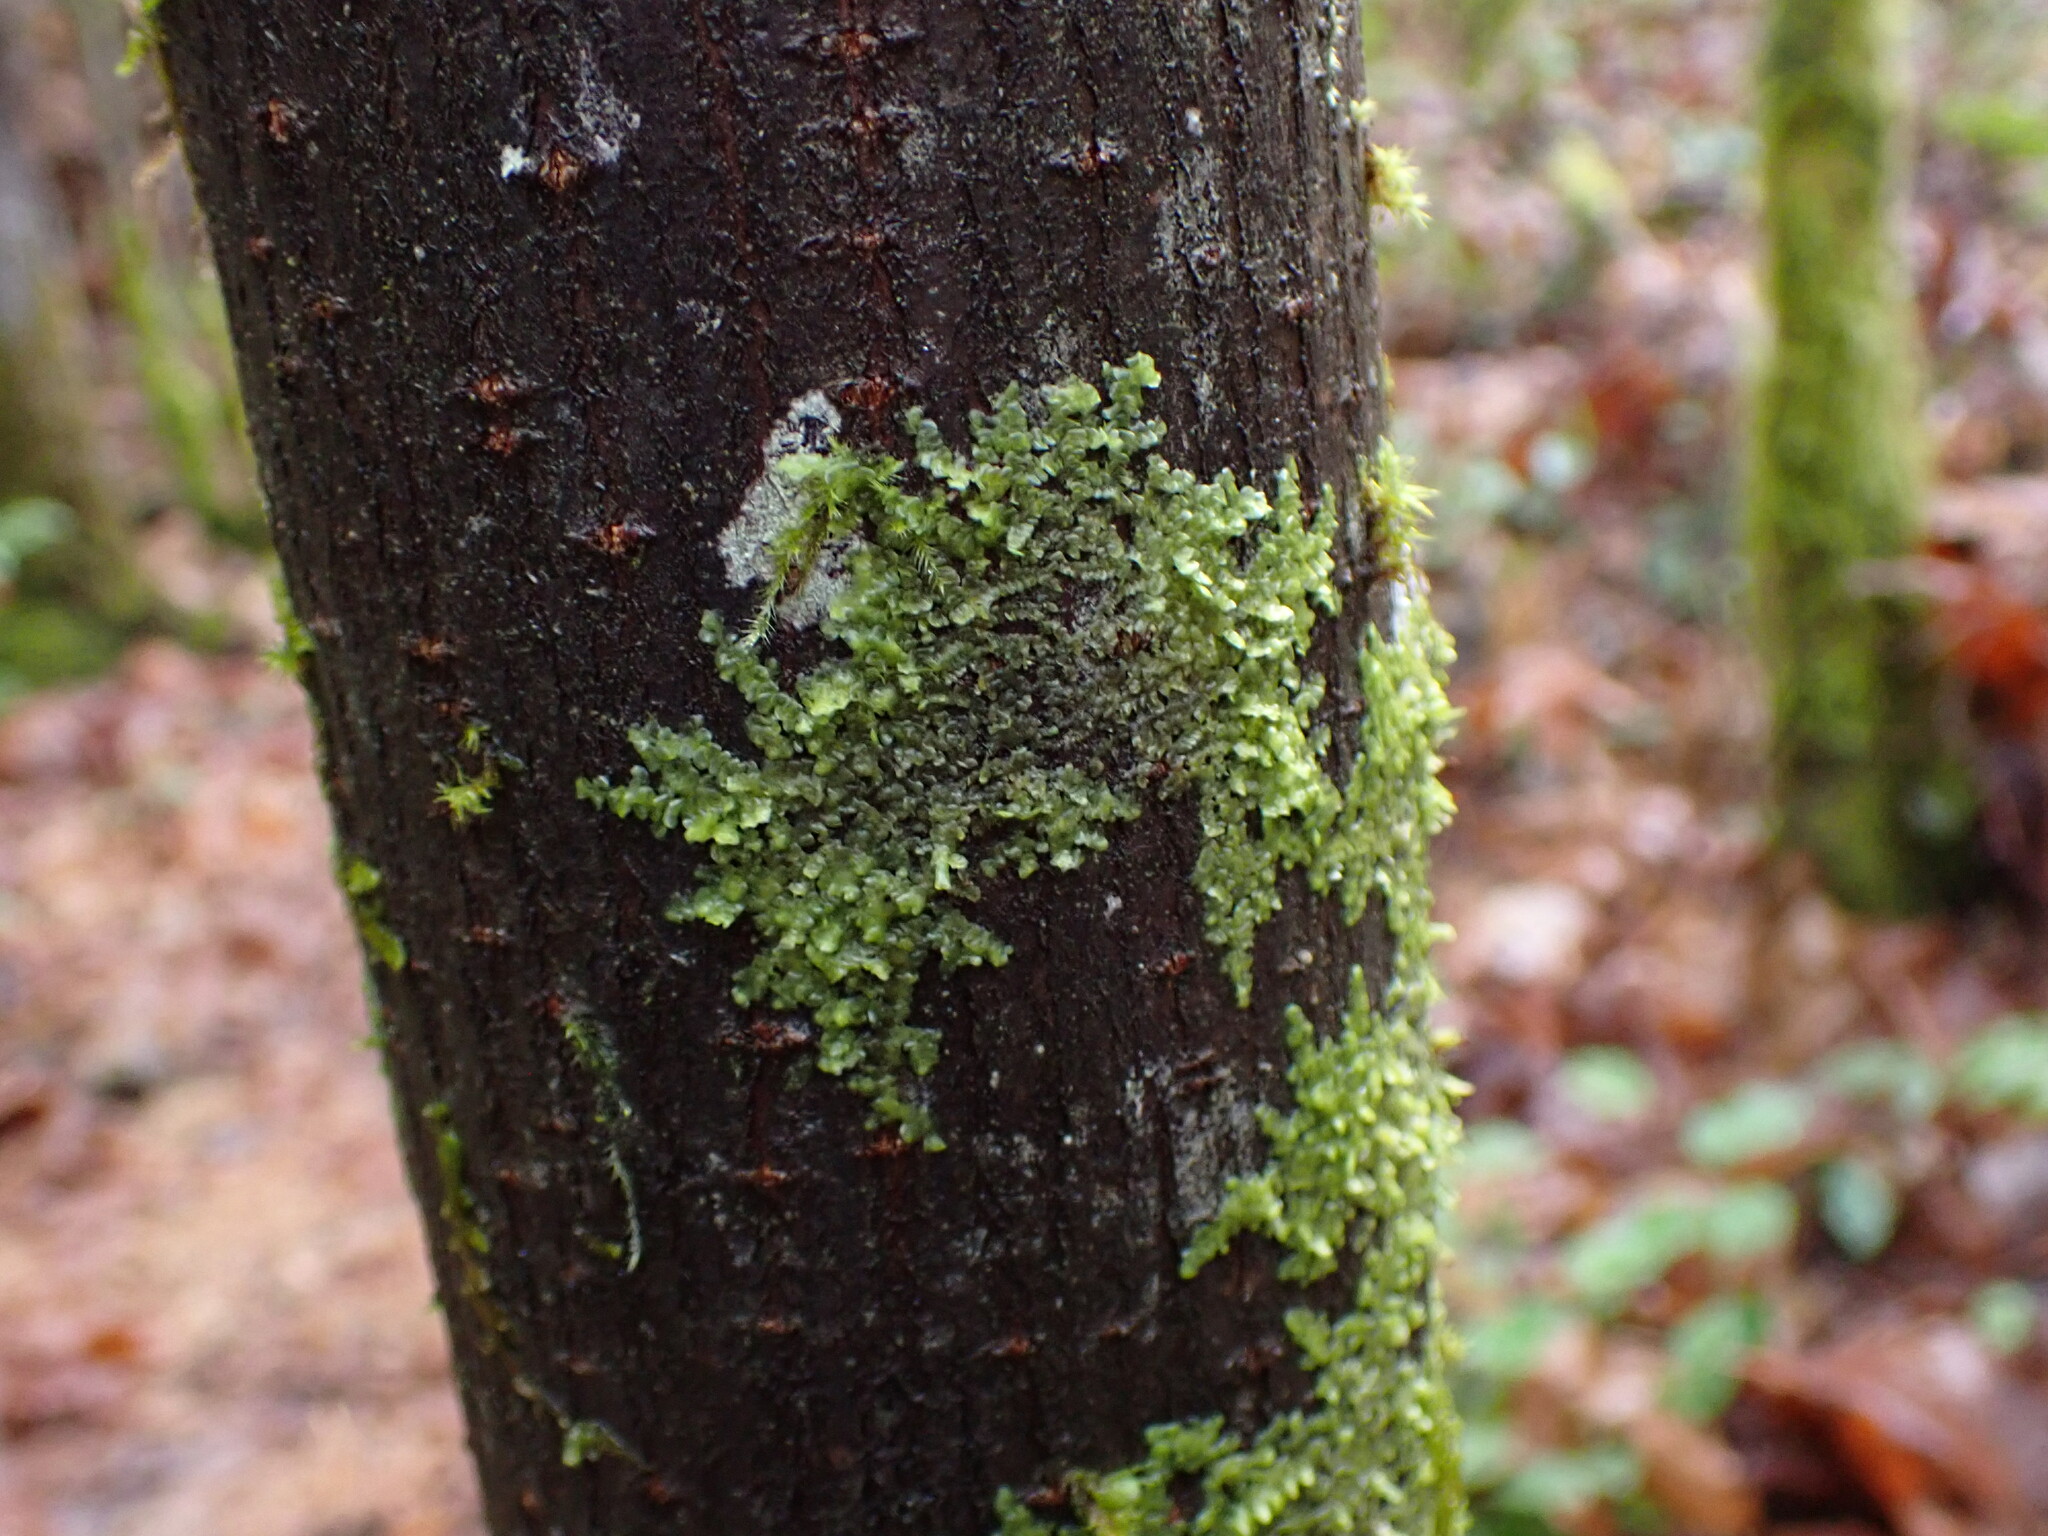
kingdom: Plantae
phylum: Marchantiophyta
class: Jungermanniopsida
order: Porellales
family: Radulaceae
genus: Radula
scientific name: Radula complanata
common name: Flat-leaved scalewort
